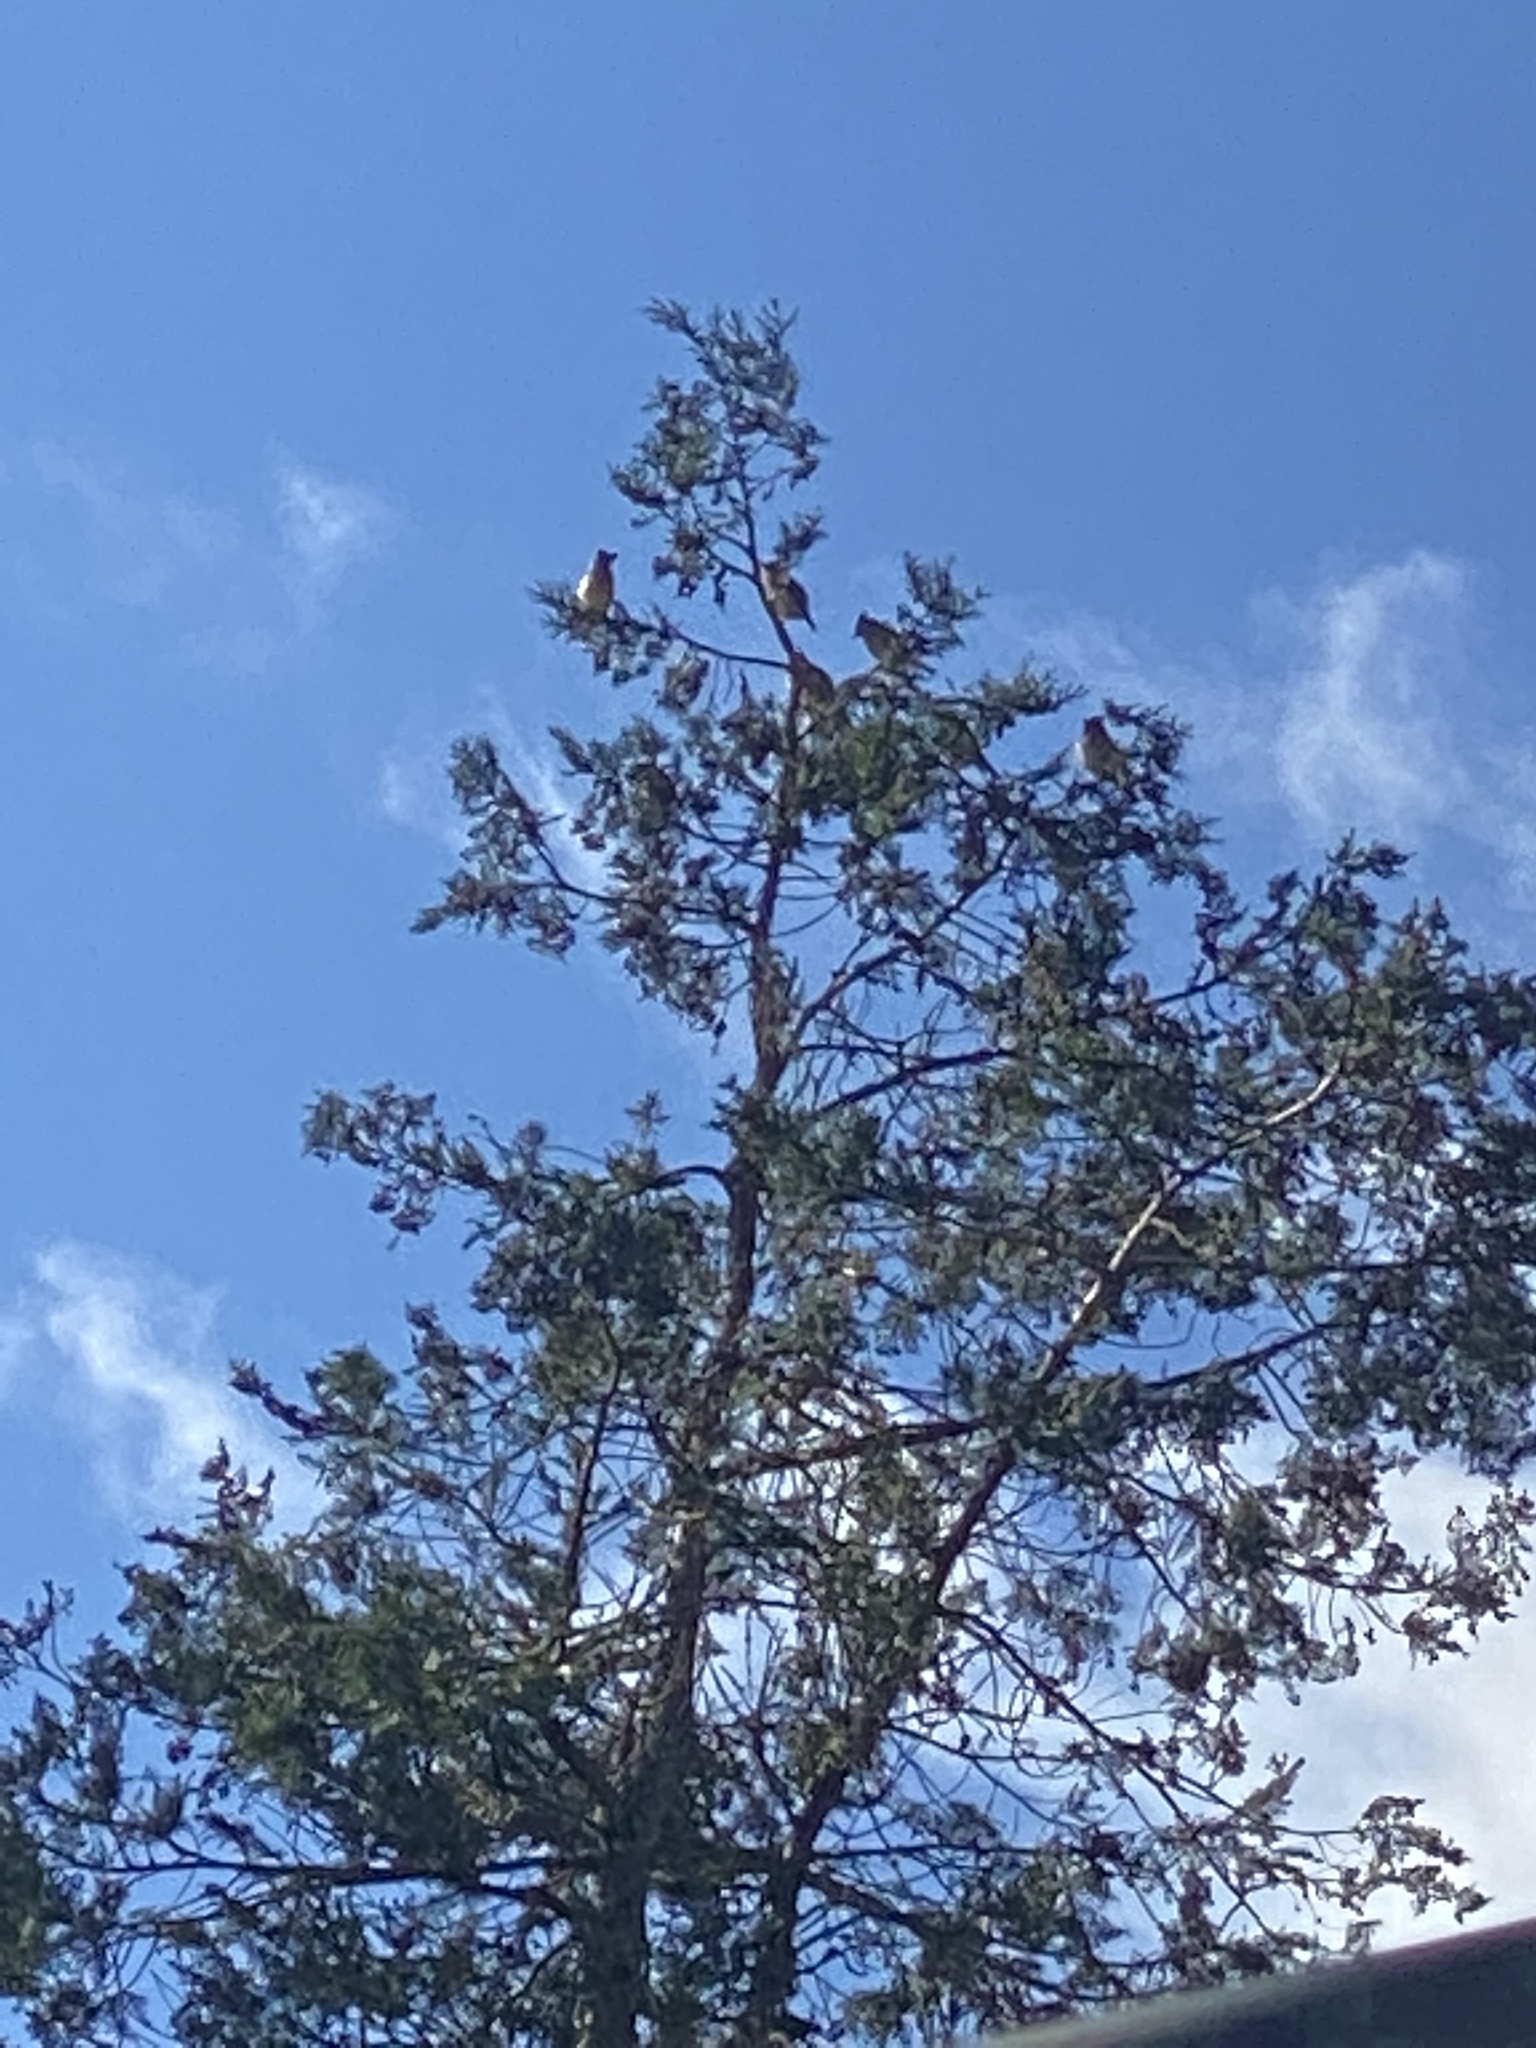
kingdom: Animalia
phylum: Chordata
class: Aves
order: Passeriformes
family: Bombycillidae
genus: Bombycilla
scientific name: Bombycilla cedrorum
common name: Cedar waxwing
